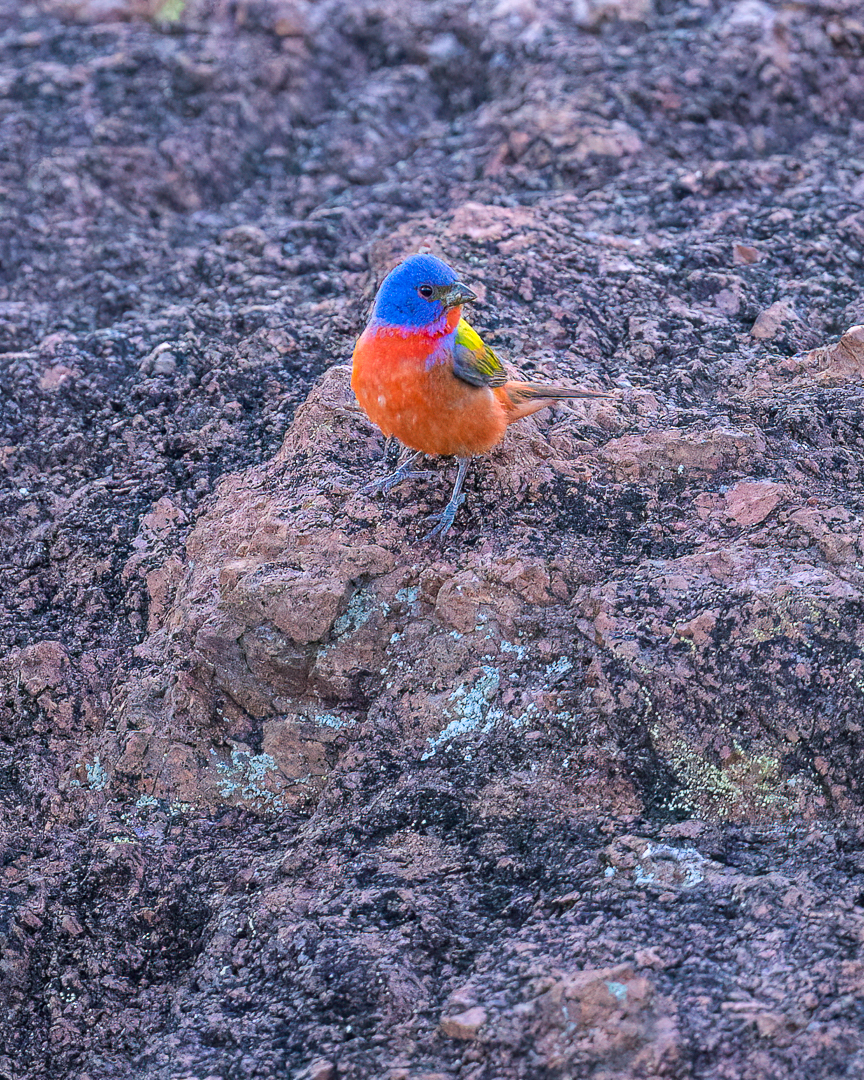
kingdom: Animalia
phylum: Chordata
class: Aves
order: Passeriformes
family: Cardinalidae
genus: Passerina
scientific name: Passerina ciris
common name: Painted bunting
